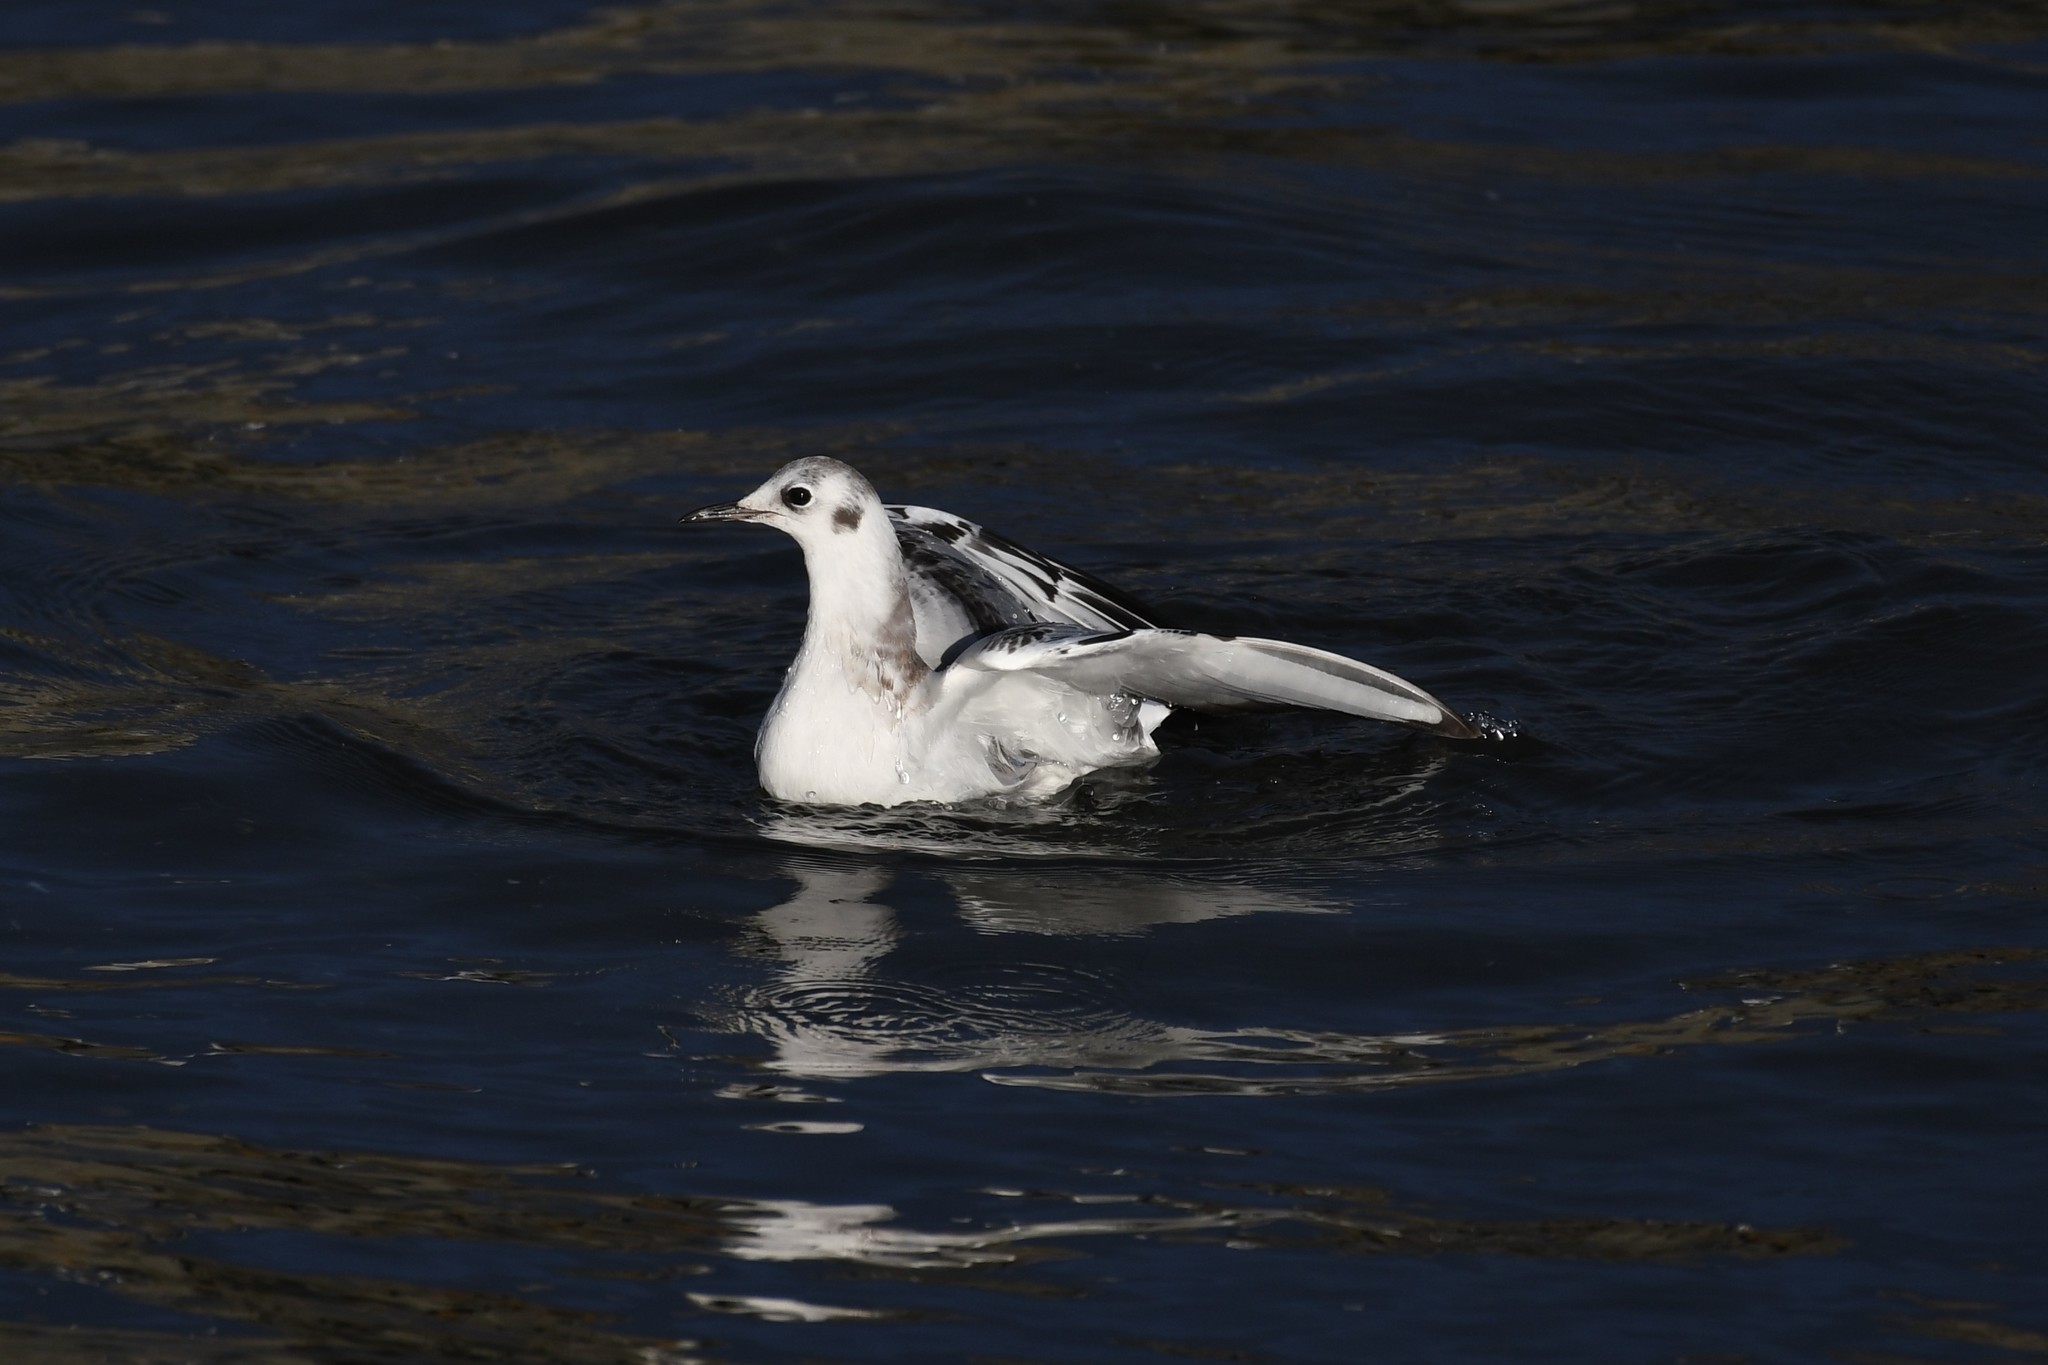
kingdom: Animalia
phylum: Chordata
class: Aves
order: Charadriiformes
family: Laridae
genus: Chroicocephalus
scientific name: Chroicocephalus philadelphia
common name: Bonaparte's gull
